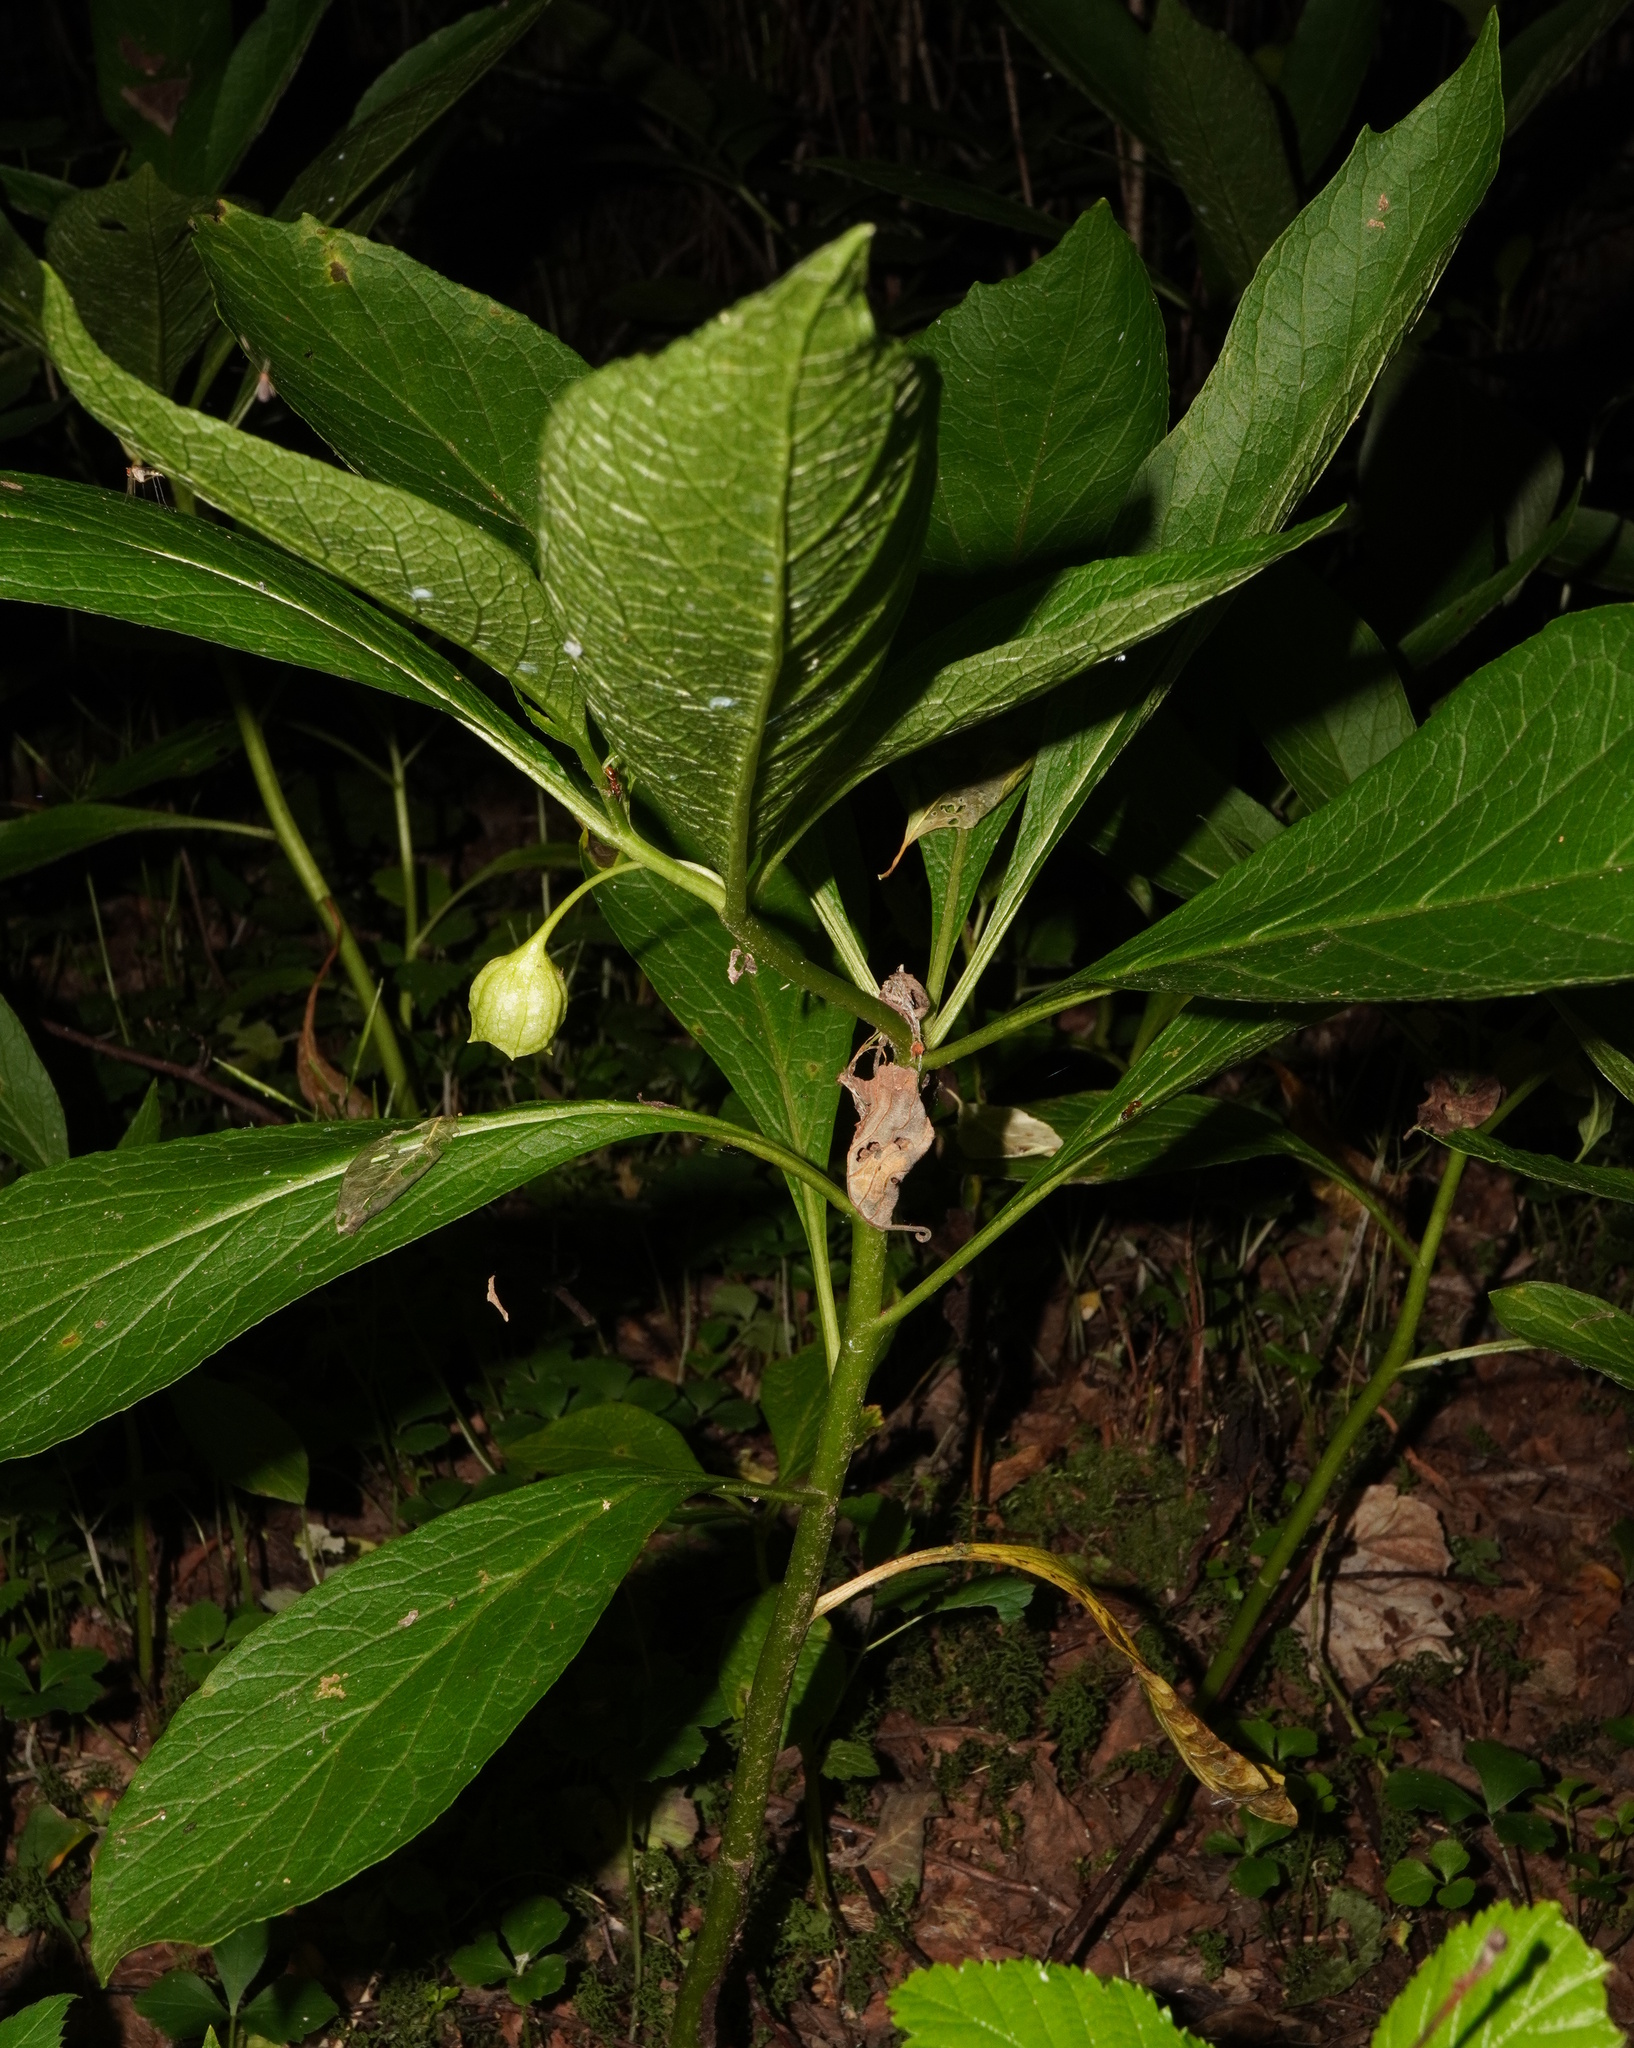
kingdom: Plantae
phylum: Tracheophyta
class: Magnoliopsida
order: Solanales
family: Solanaceae
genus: Scopolia
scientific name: Scopolia carniolica
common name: Scopolia
